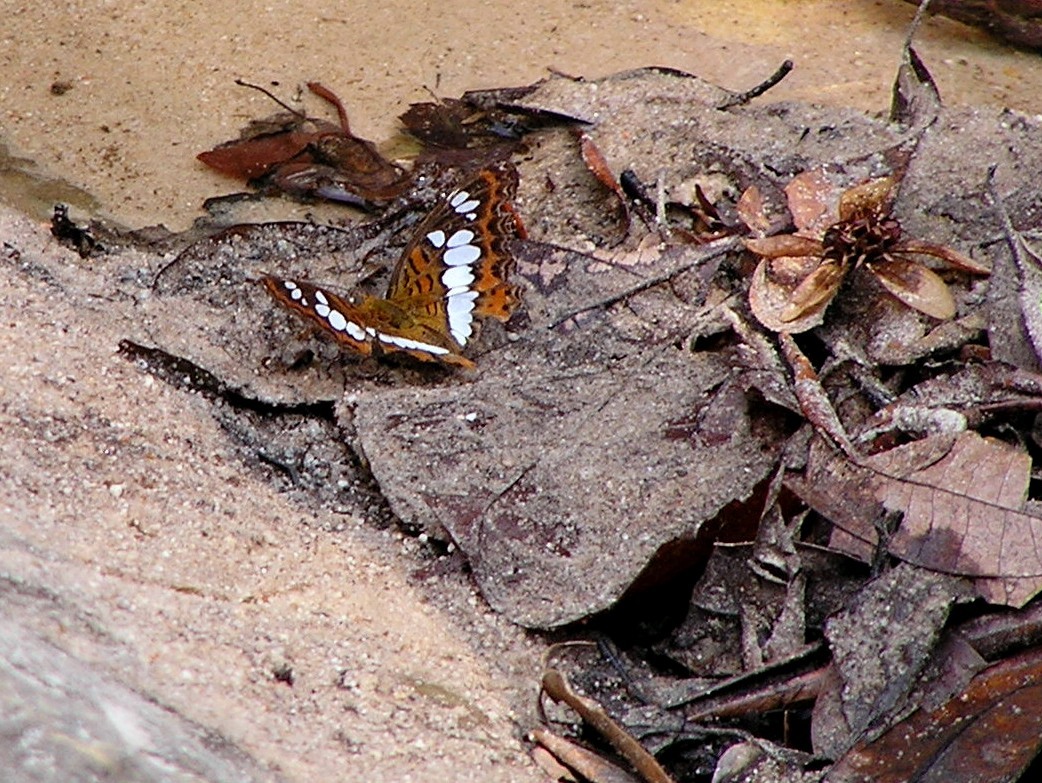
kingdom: Animalia
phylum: Arthropoda
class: Insecta
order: Lepidoptera
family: Nymphalidae
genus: Limenitis
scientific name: Limenitis Moduza procris
